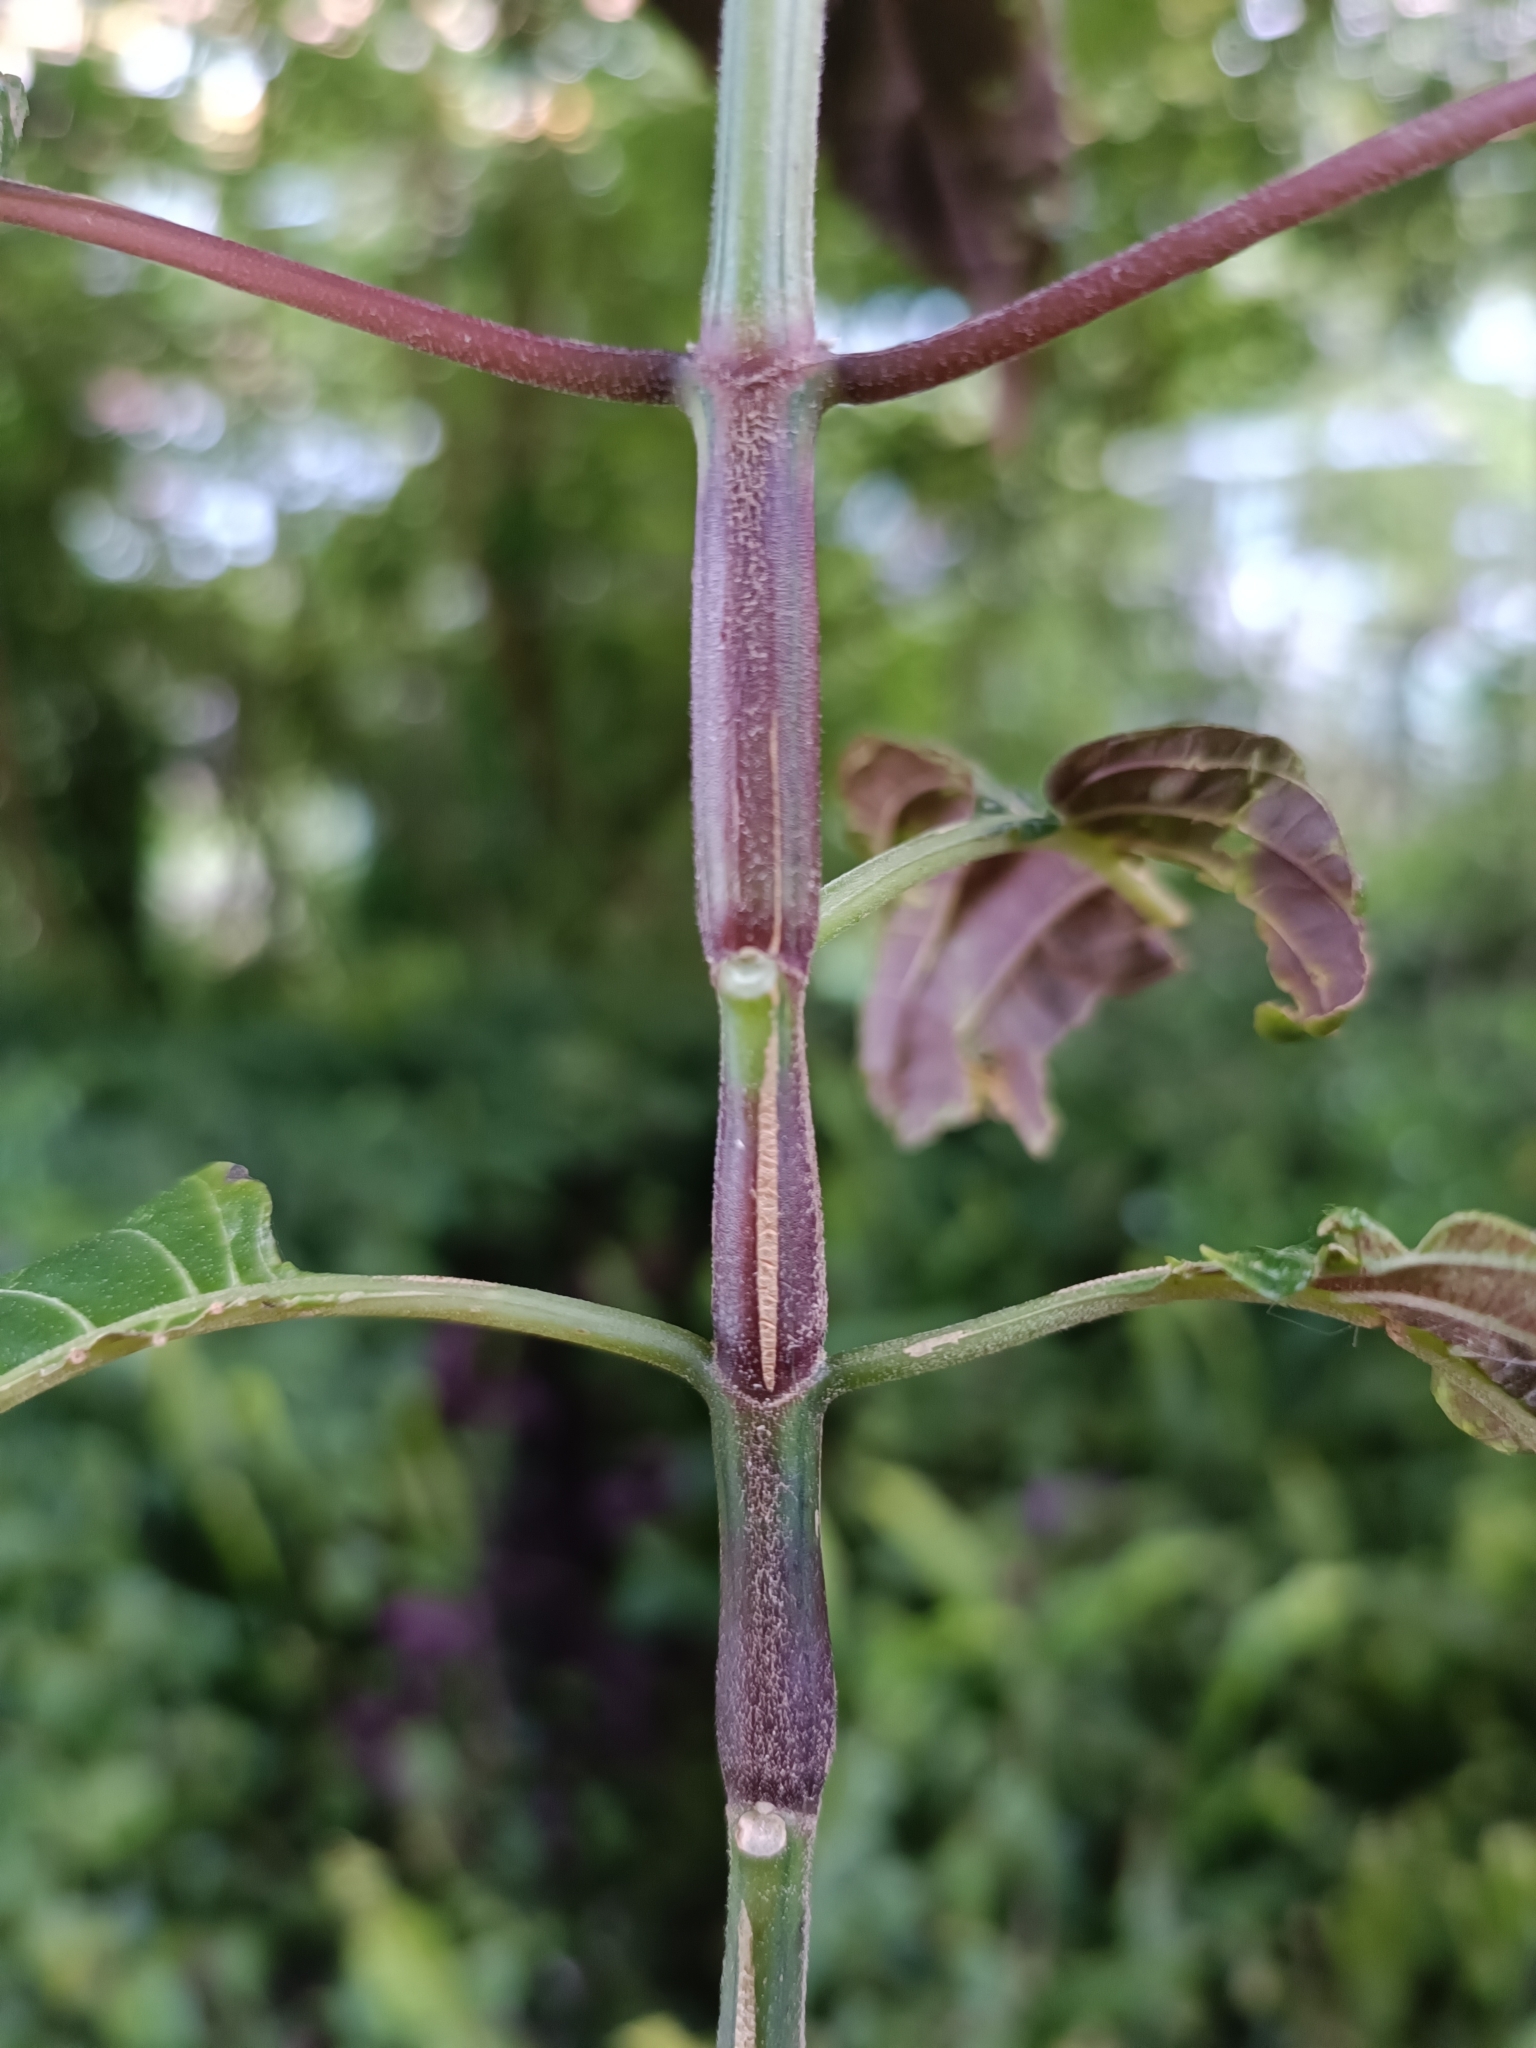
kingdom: Plantae
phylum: Tracheophyta
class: Magnoliopsida
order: Lamiales
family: Acanthaceae
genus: Justicia
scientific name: Justicia carnea
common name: Brazilian-plume
